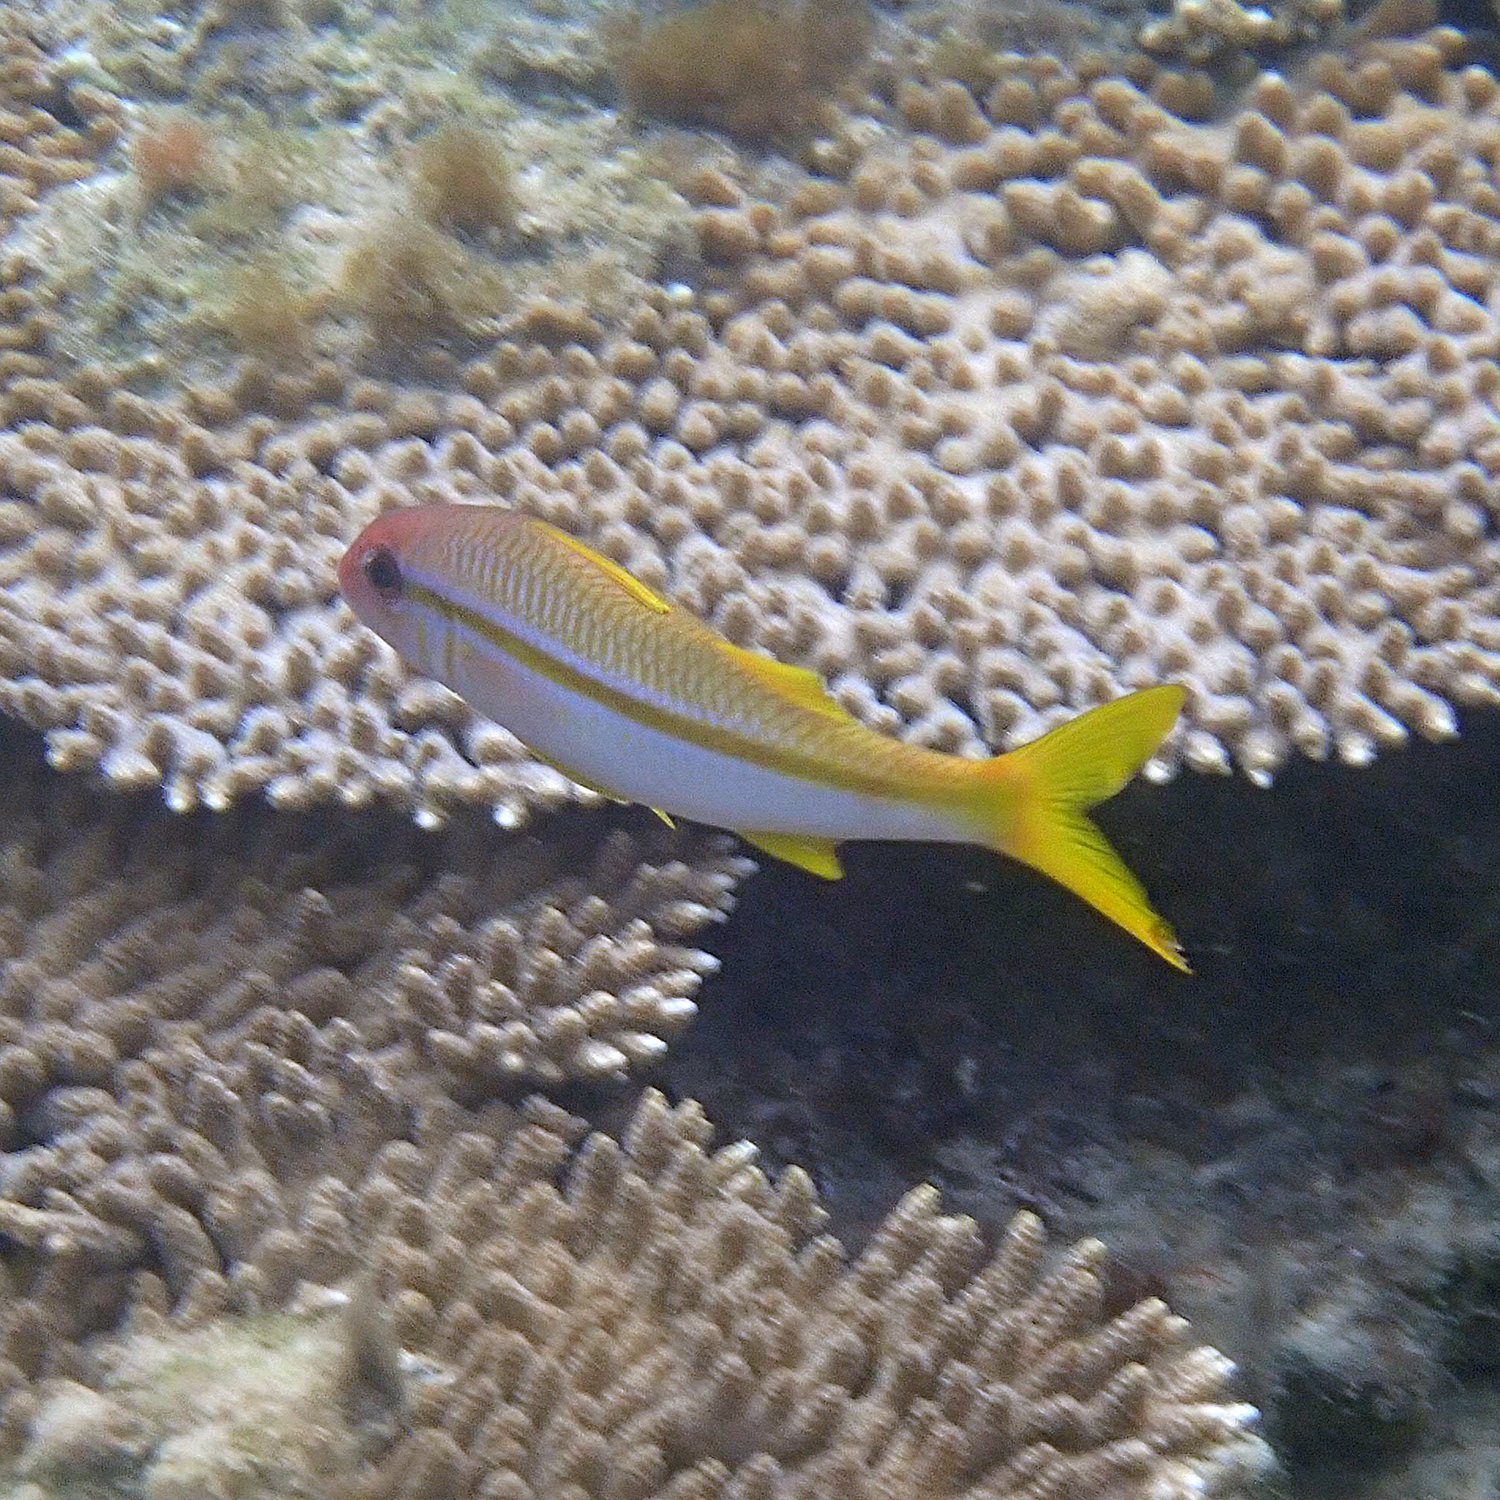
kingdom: Animalia
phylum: Chordata
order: Perciformes
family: Mullidae
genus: Mulloidichthys
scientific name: Mulloidichthys vanicolensis
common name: Yellowfin goatfish
